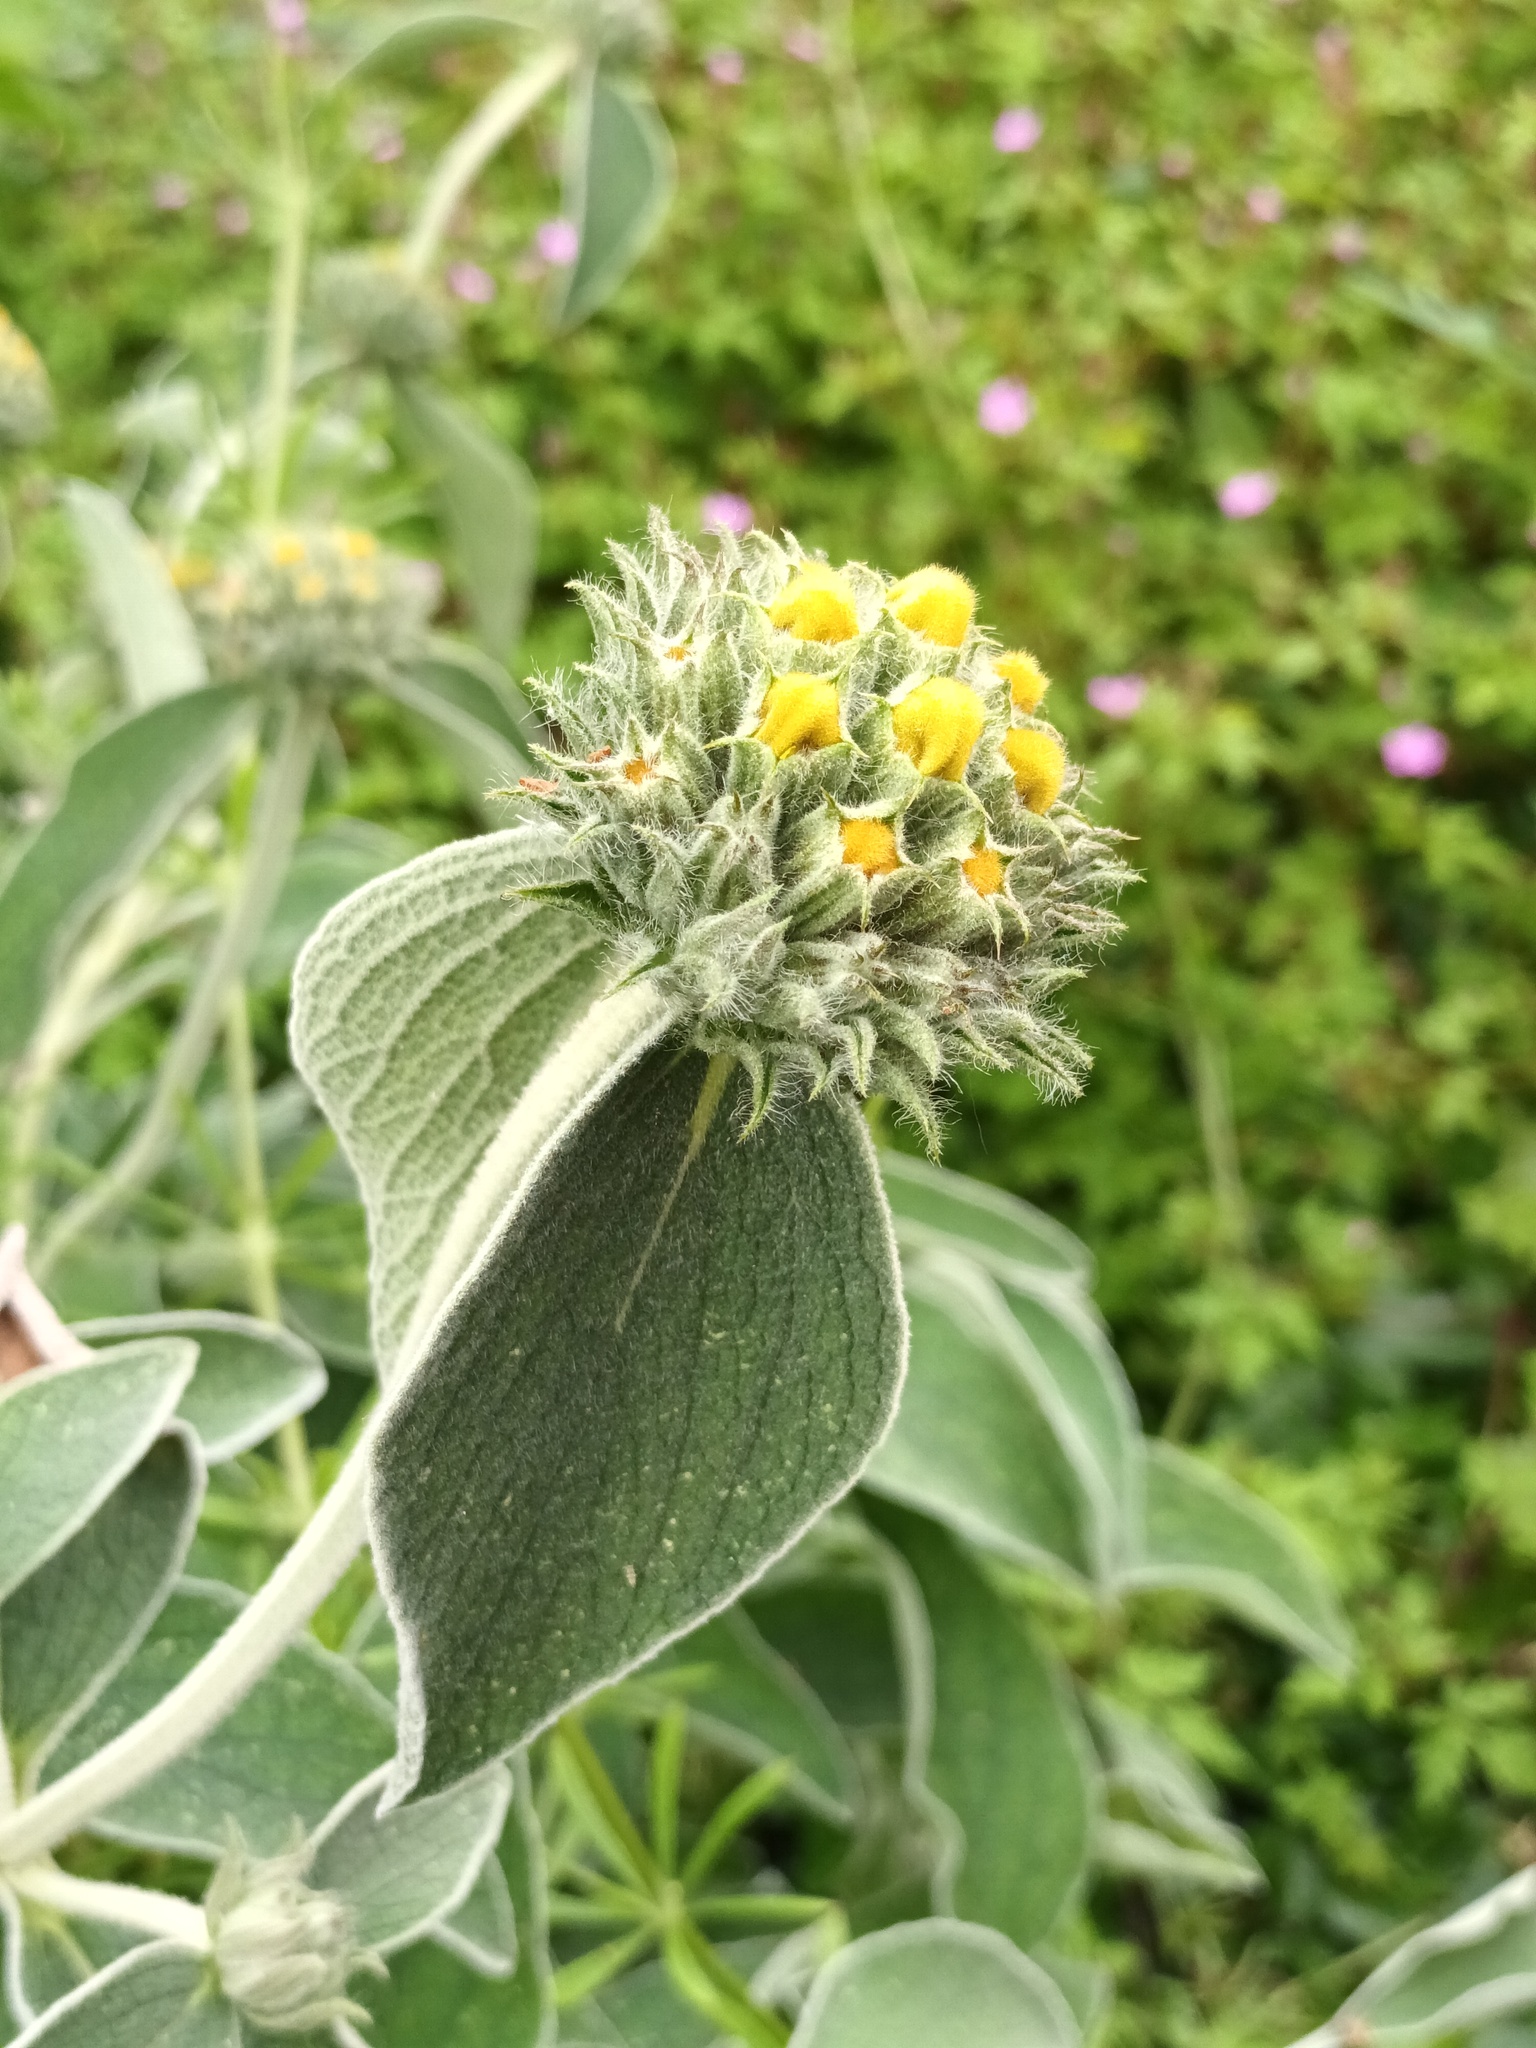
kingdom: Plantae
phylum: Tracheophyta
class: Magnoliopsida
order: Lamiales
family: Lamiaceae
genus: Phlomis
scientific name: Phlomis fruticosa
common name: Jerusalem sage
